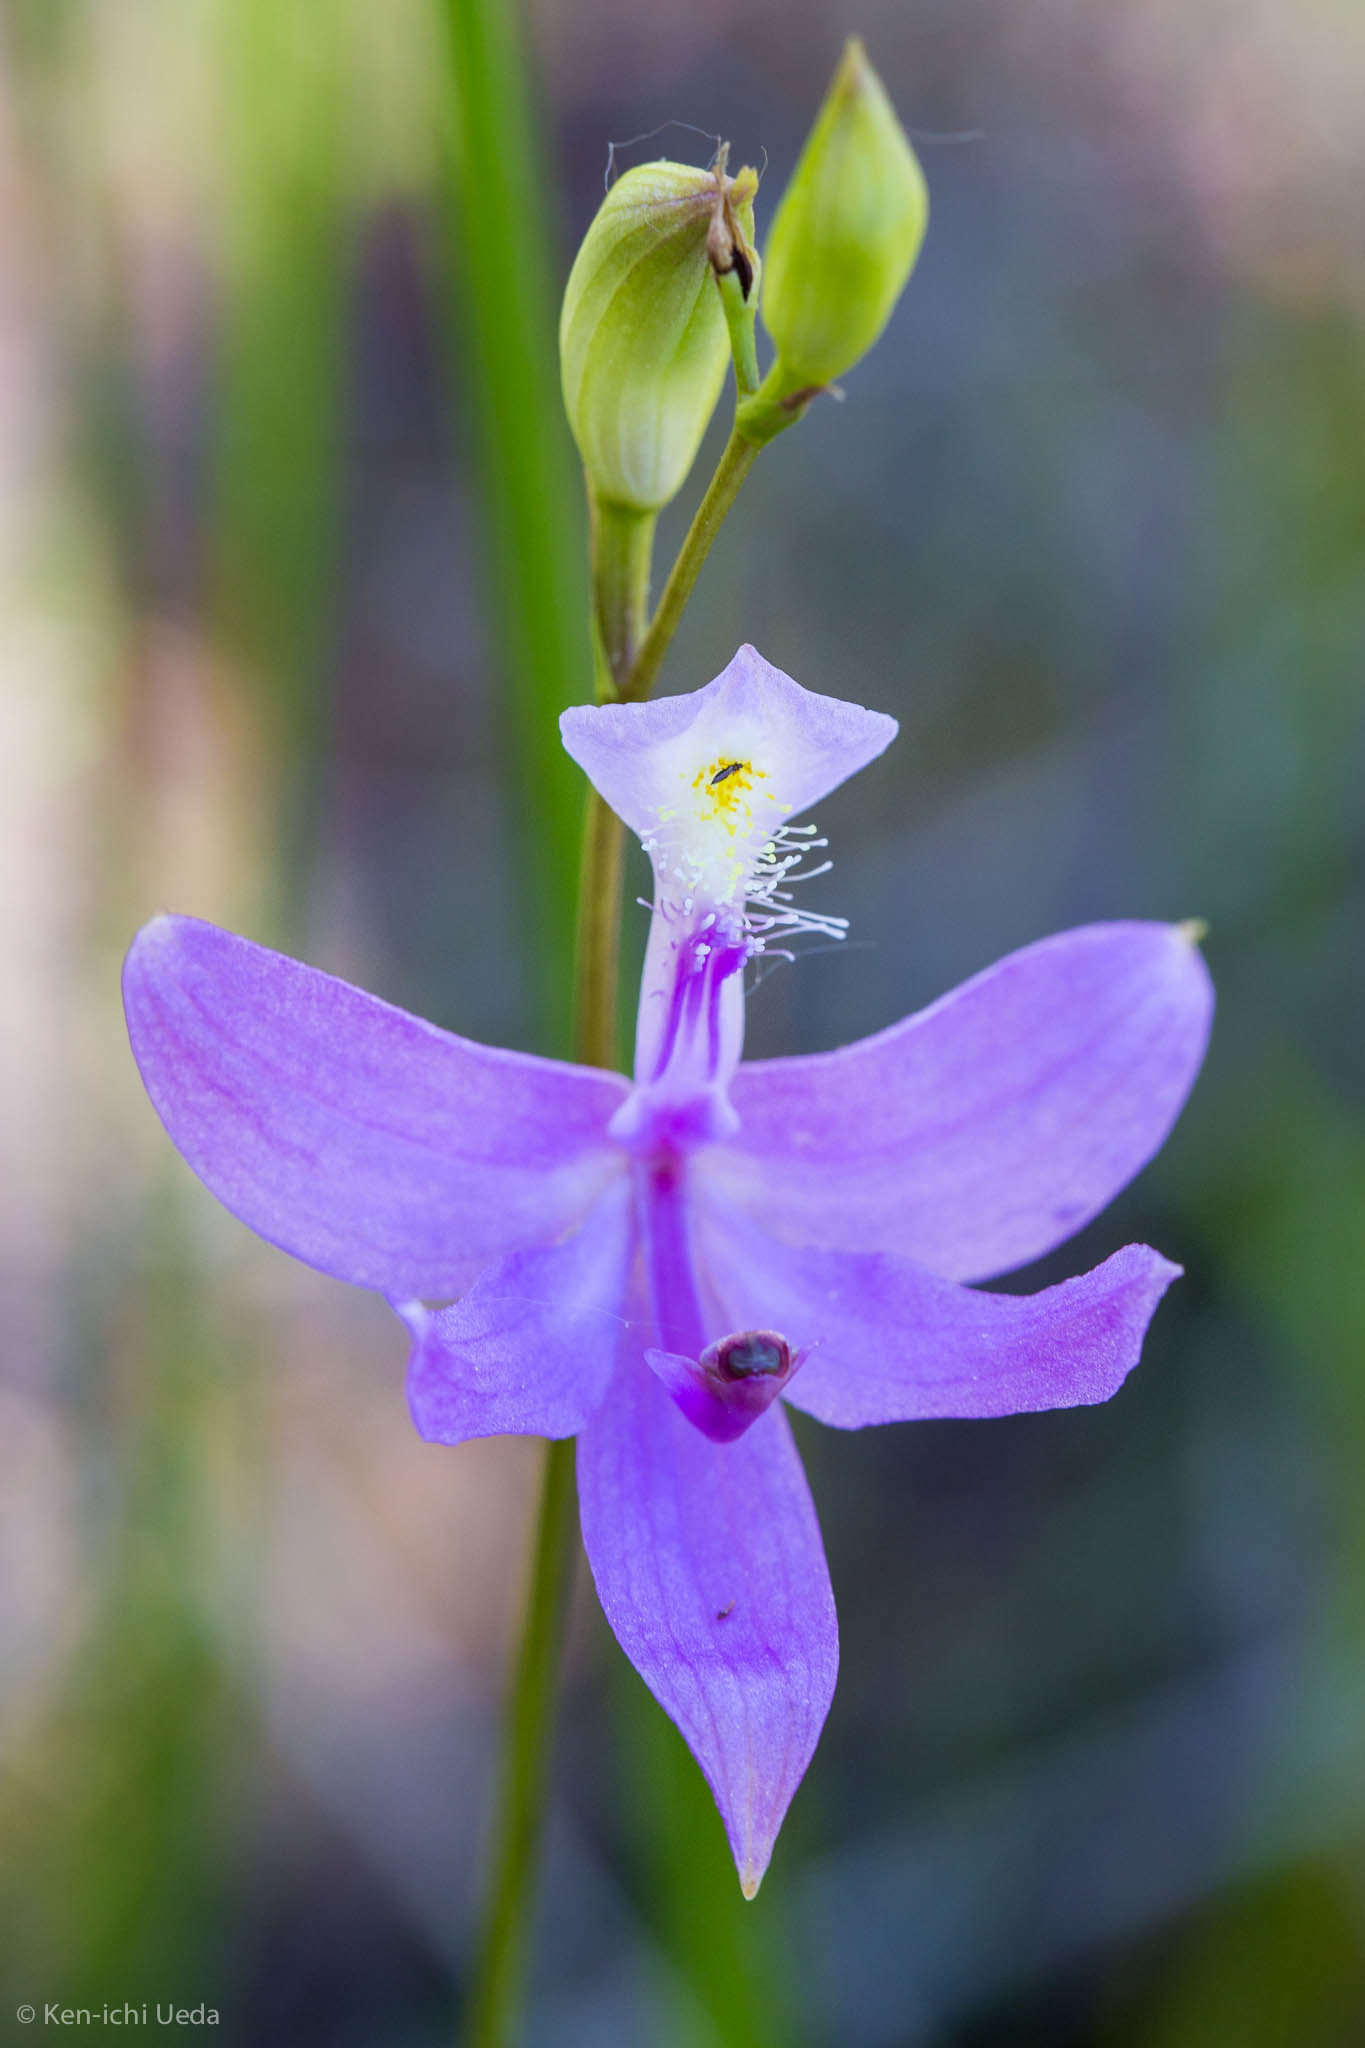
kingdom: Plantae
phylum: Tracheophyta
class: Liliopsida
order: Asparagales
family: Orchidaceae
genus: Calopogon
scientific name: Calopogon tuberosus
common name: Grass-pink
